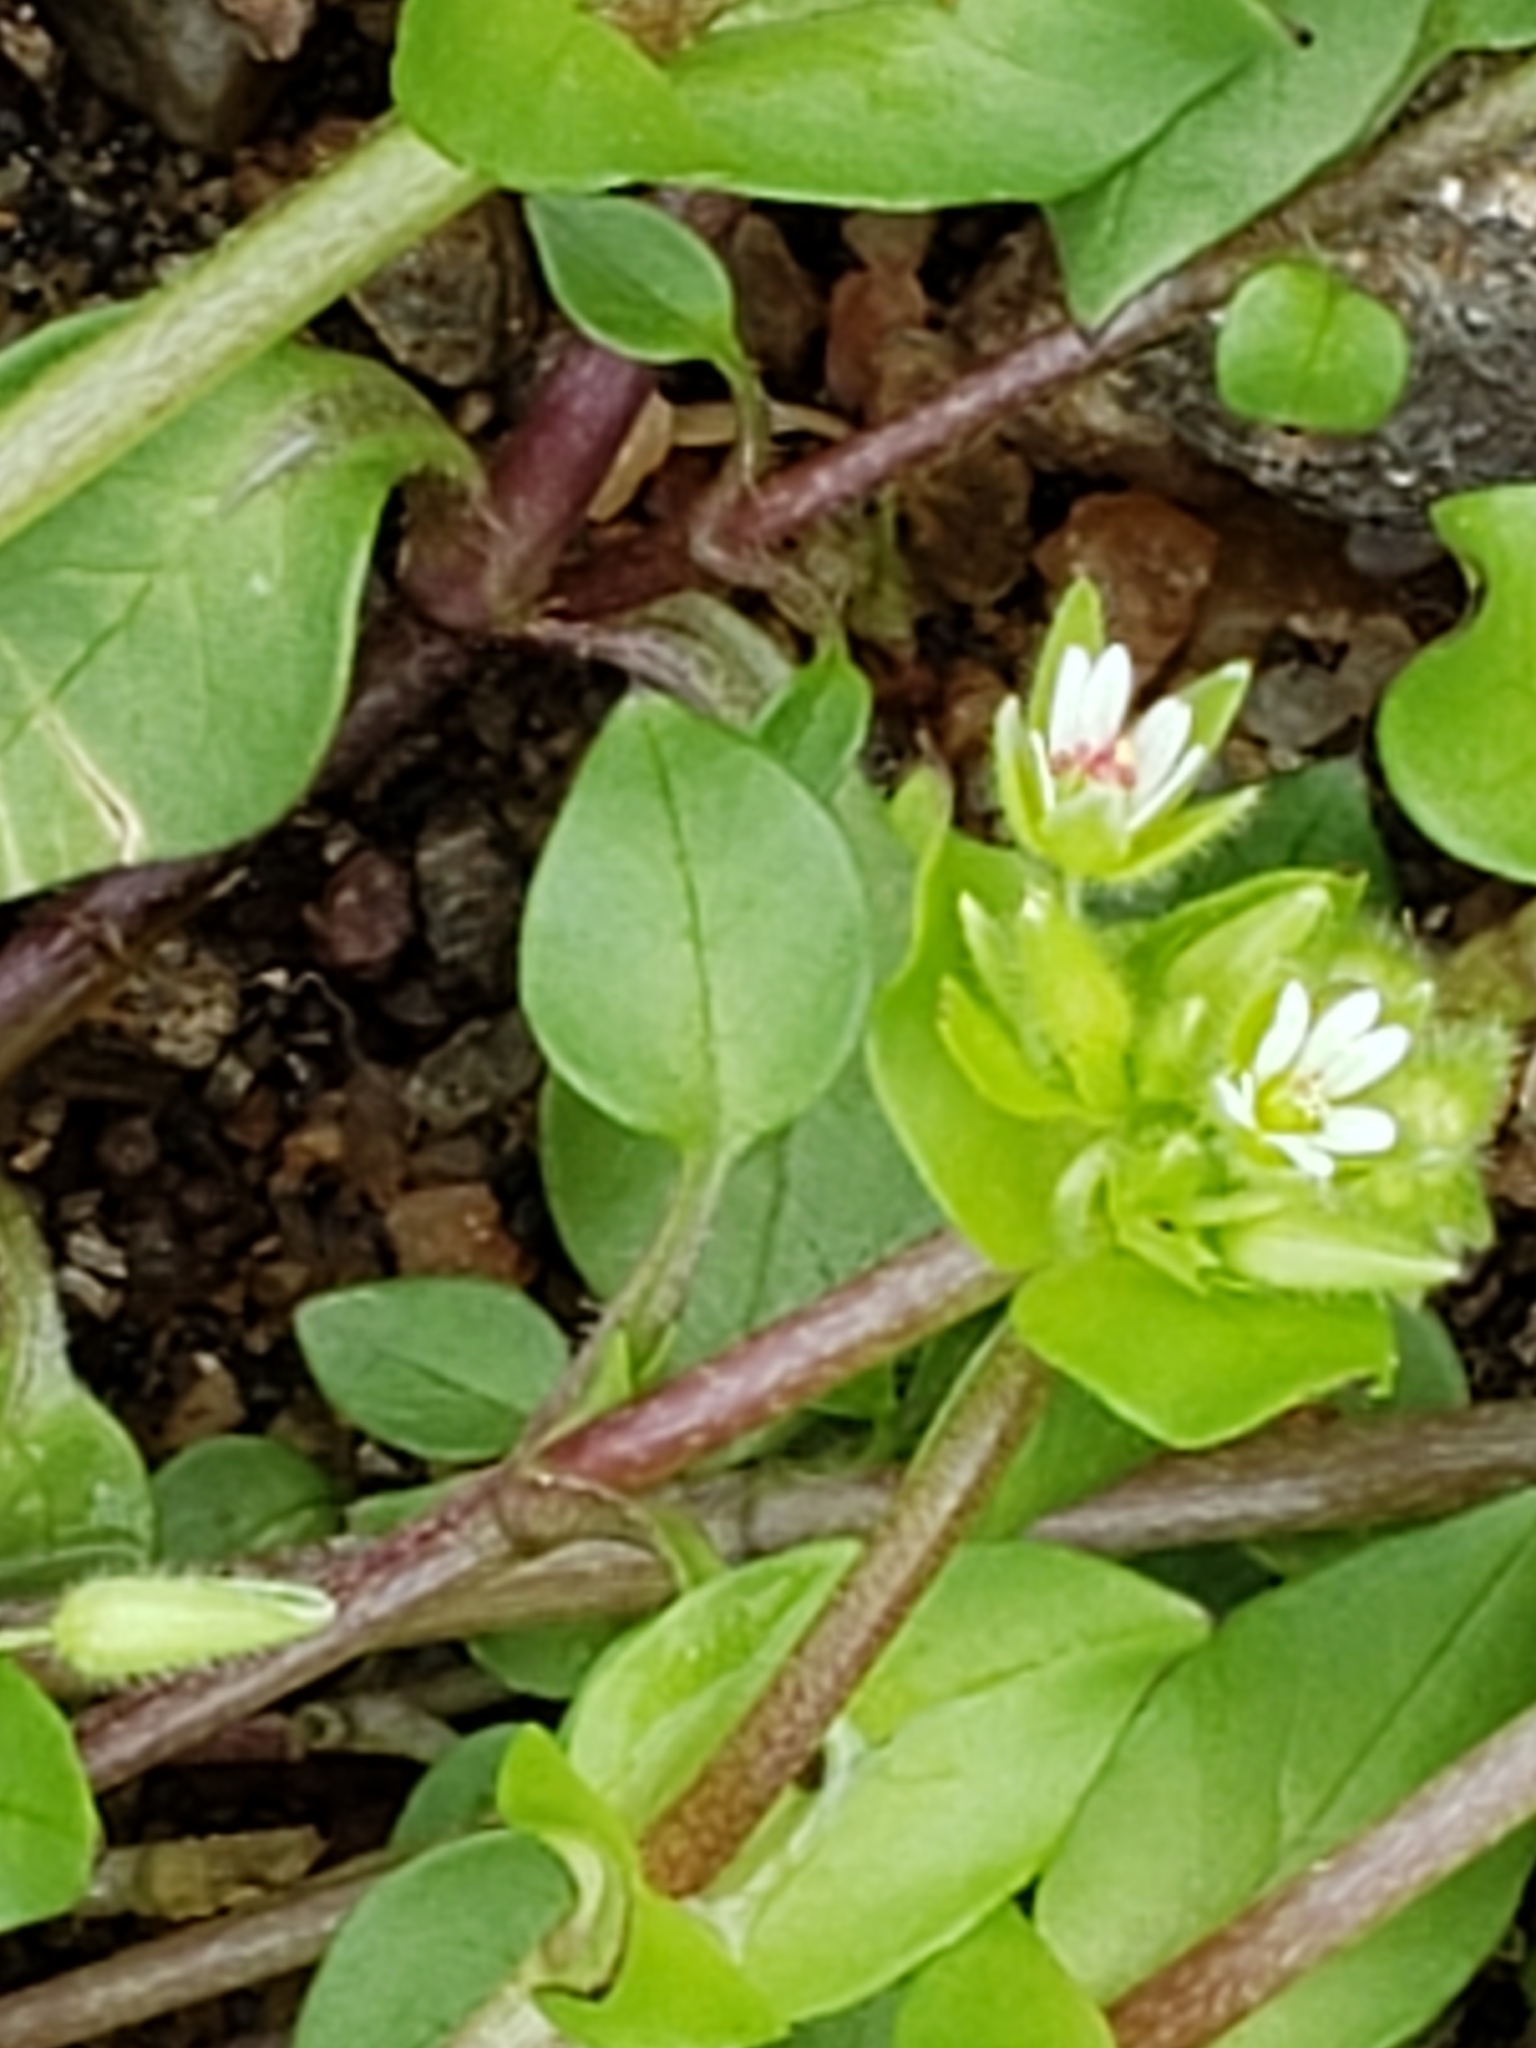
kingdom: Plantae
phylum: Tracheophyta
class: Magnoliopsida
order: Caryophyllales
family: Caryophyllaceae
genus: Stellaria
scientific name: Stellaria media
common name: Common chickweed
